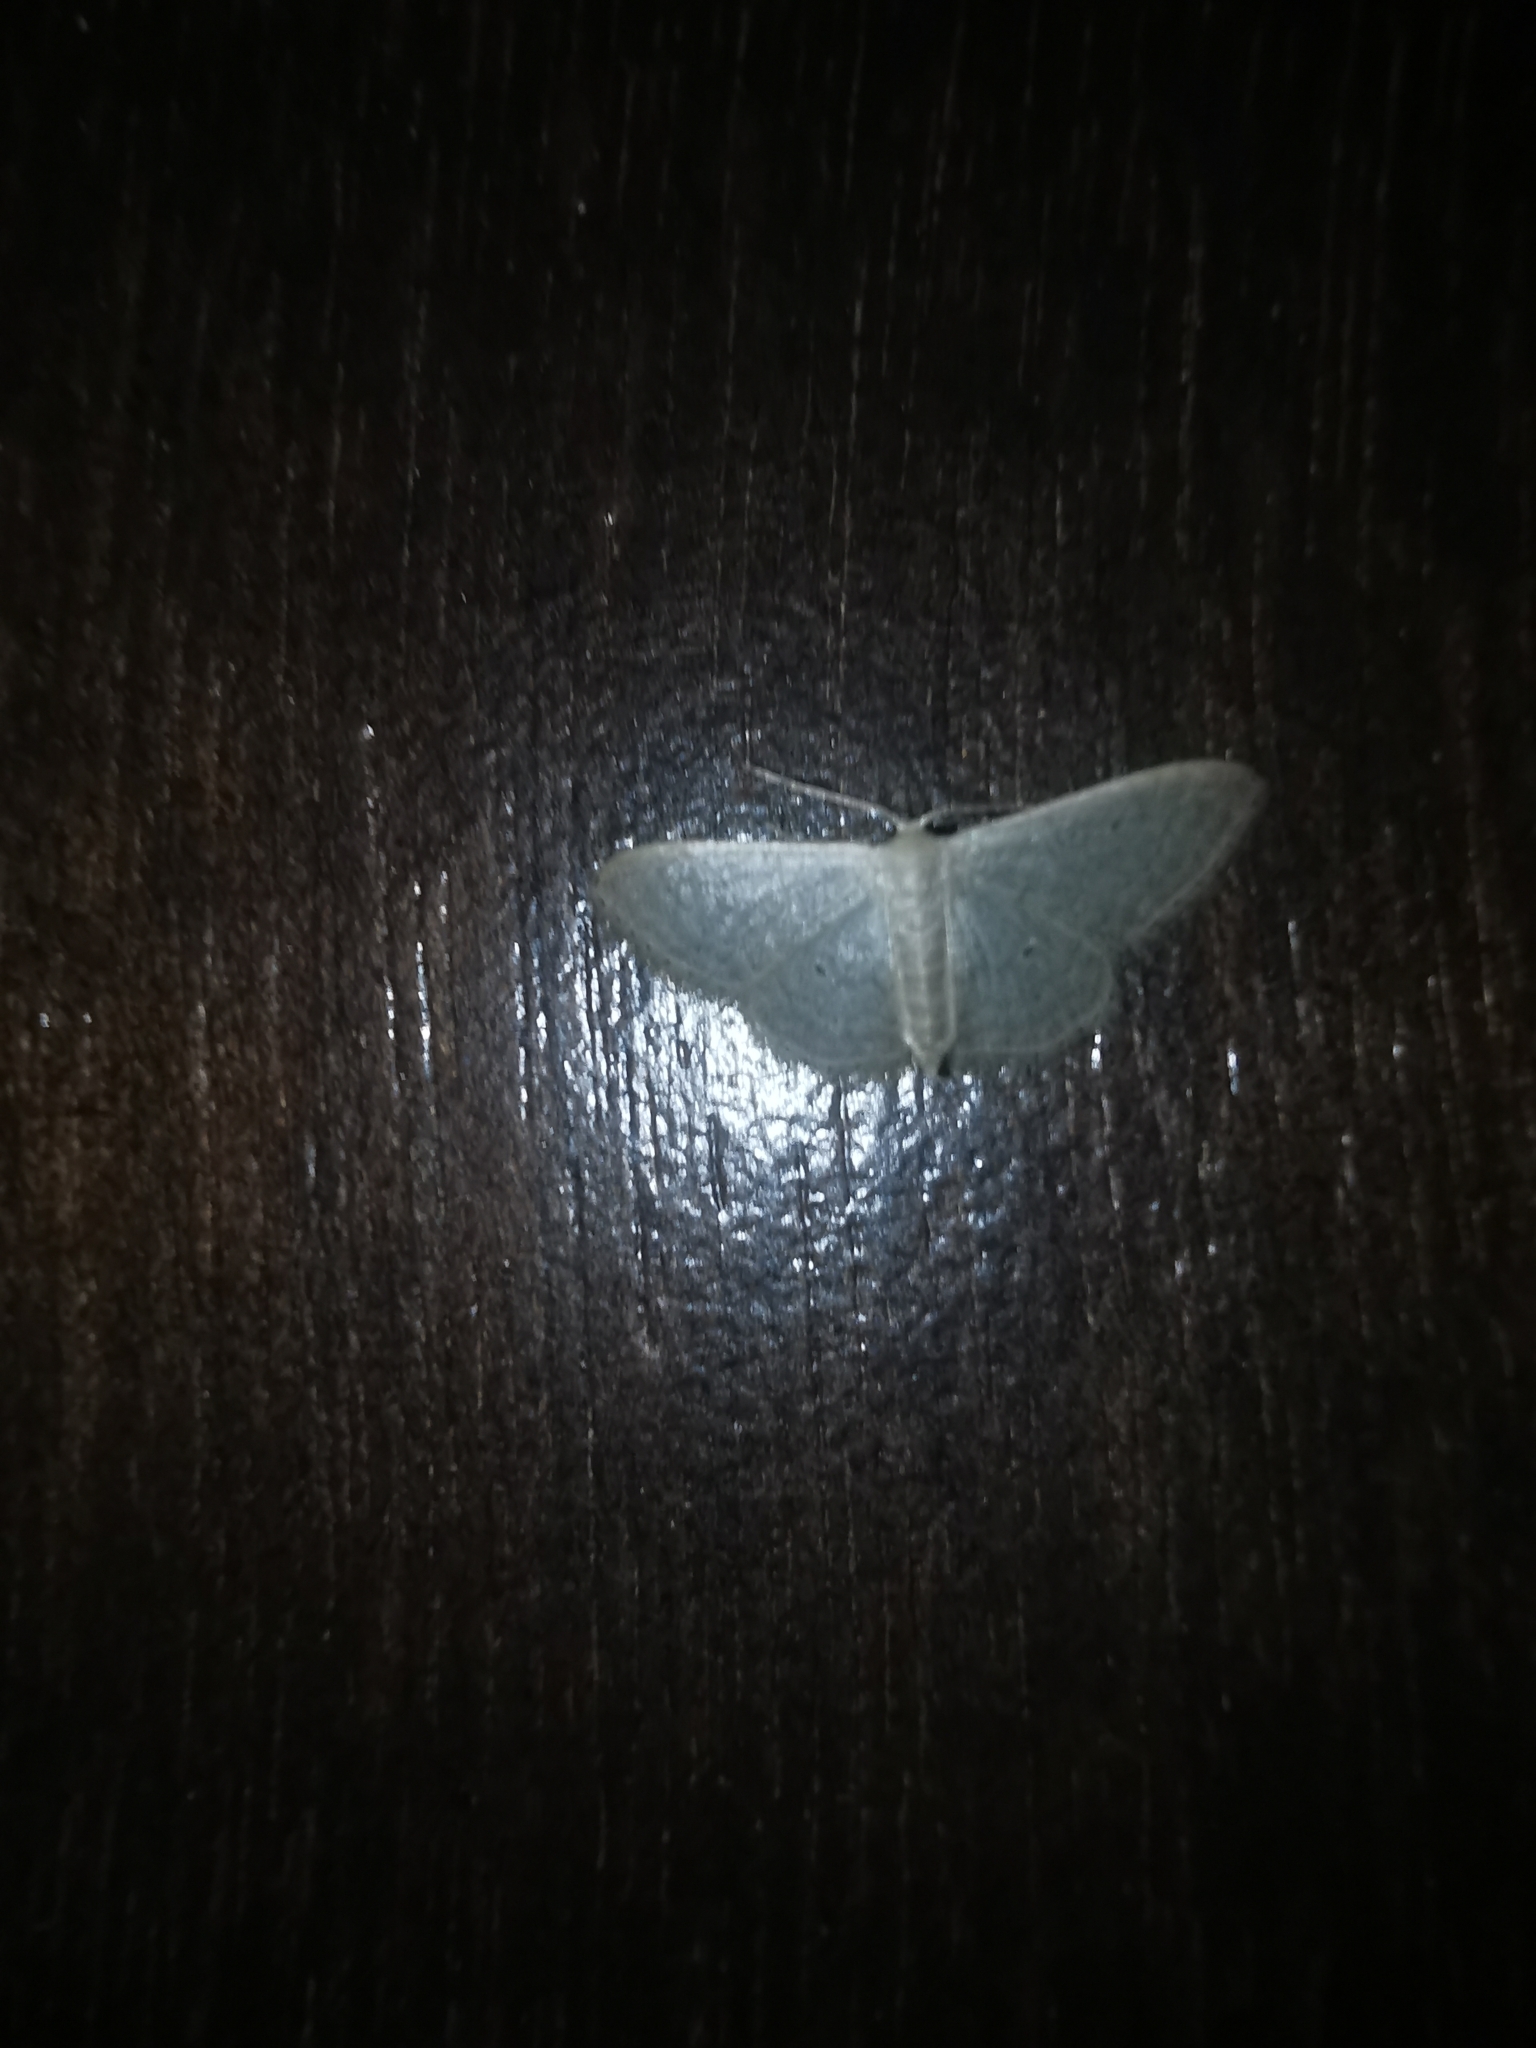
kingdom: Animalia
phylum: Arthropoda
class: Insecta
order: Lepidoptera
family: Geometridae
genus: Idaea
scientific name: Idaea distinctaria
